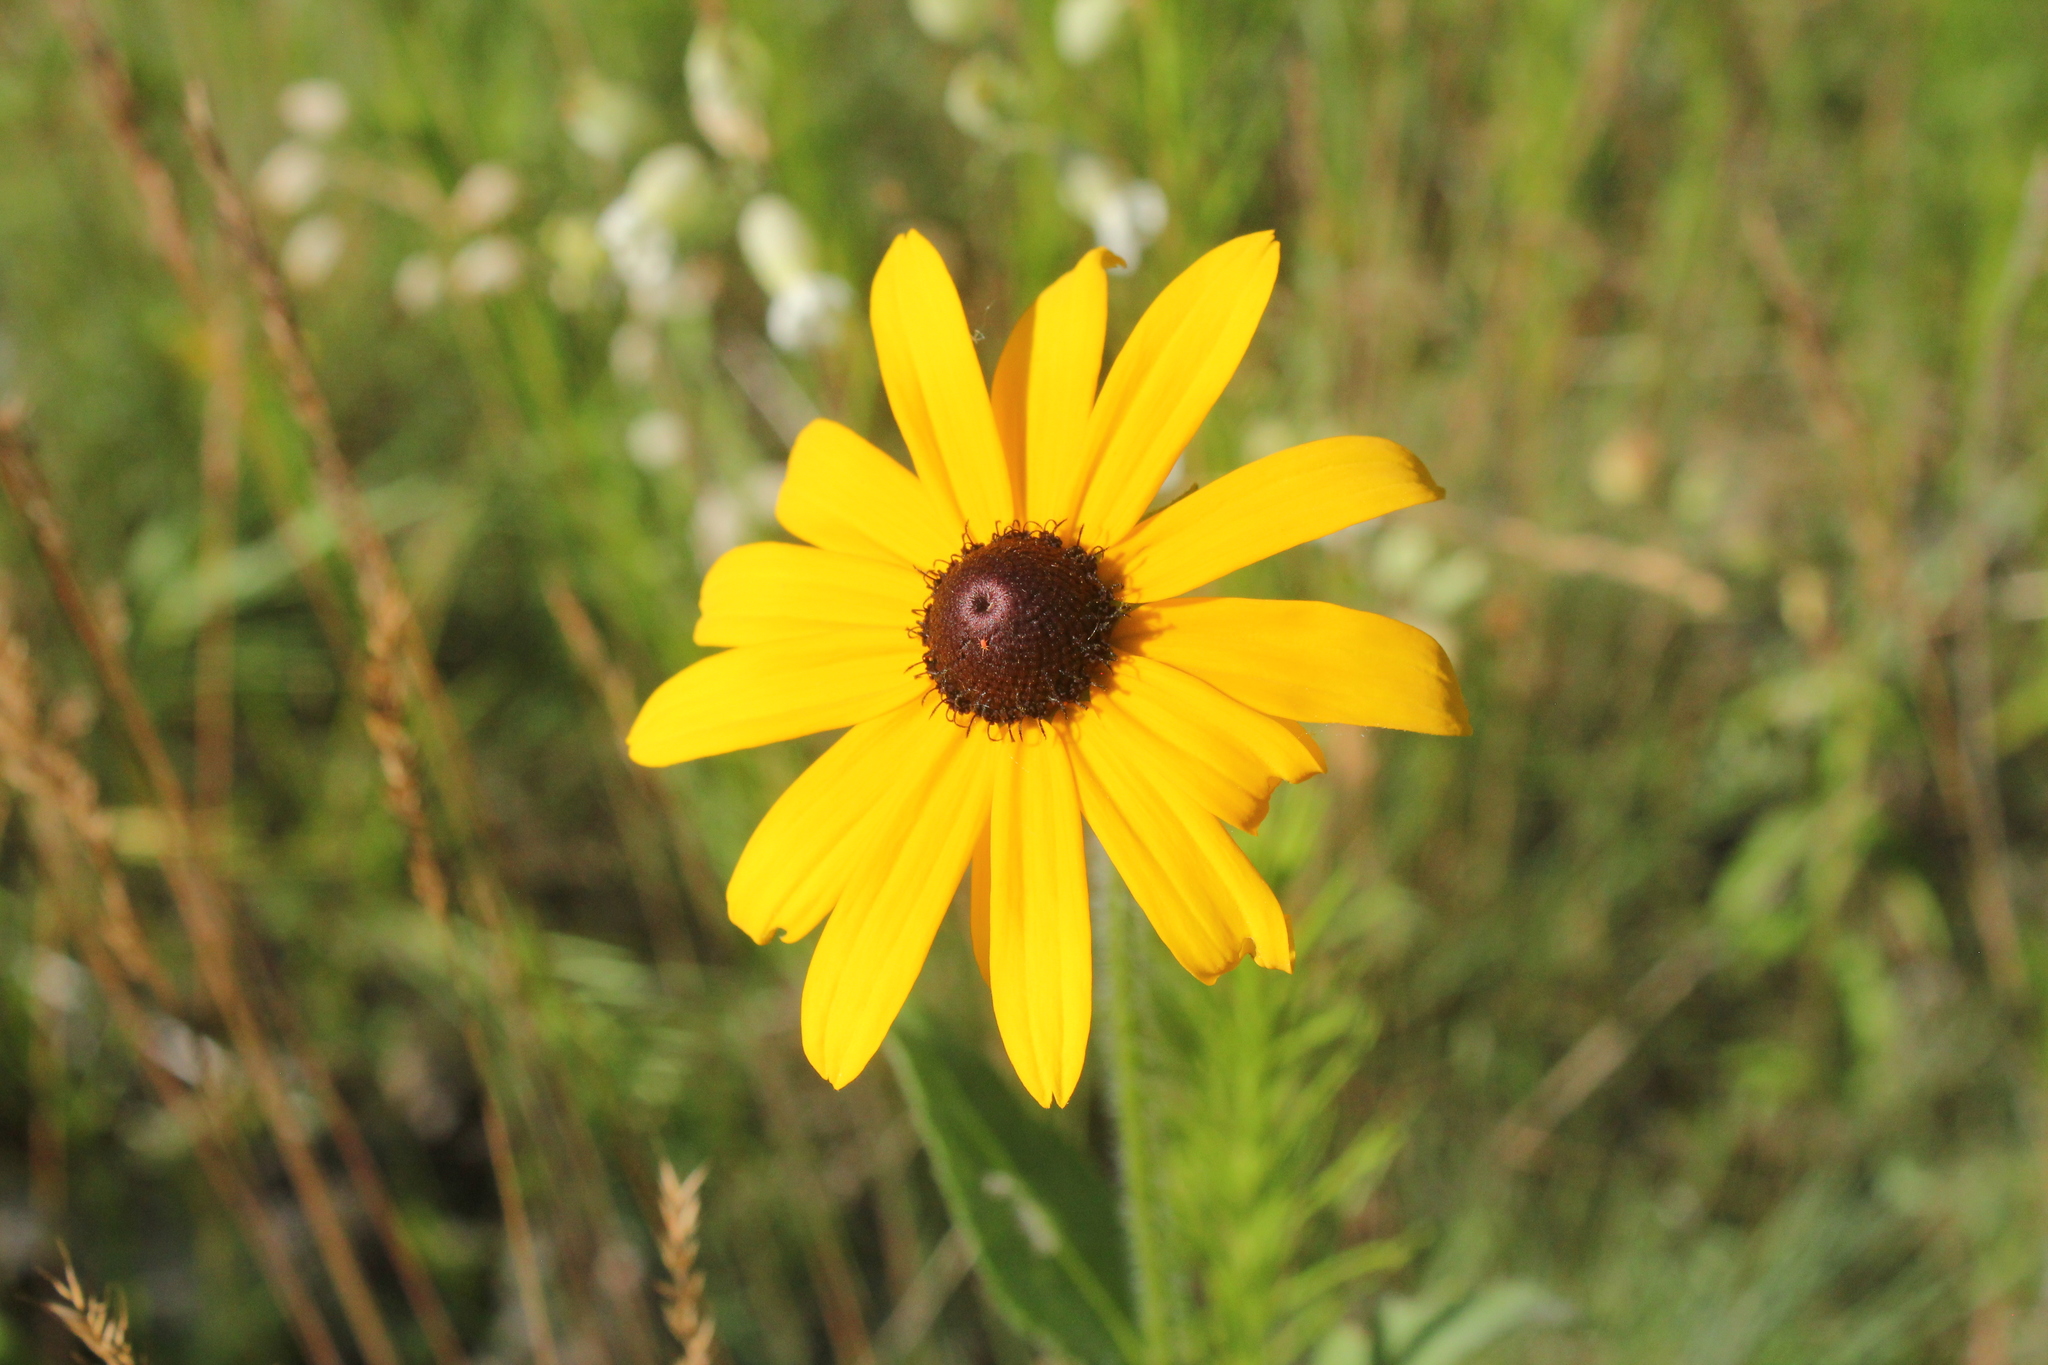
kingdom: Plantae
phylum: Tracheophyta
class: Magnoliopsida
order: Asterales
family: Asteraceae
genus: Rudbeckia
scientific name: Rudbeckia hirta
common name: Black-eyed-susan
